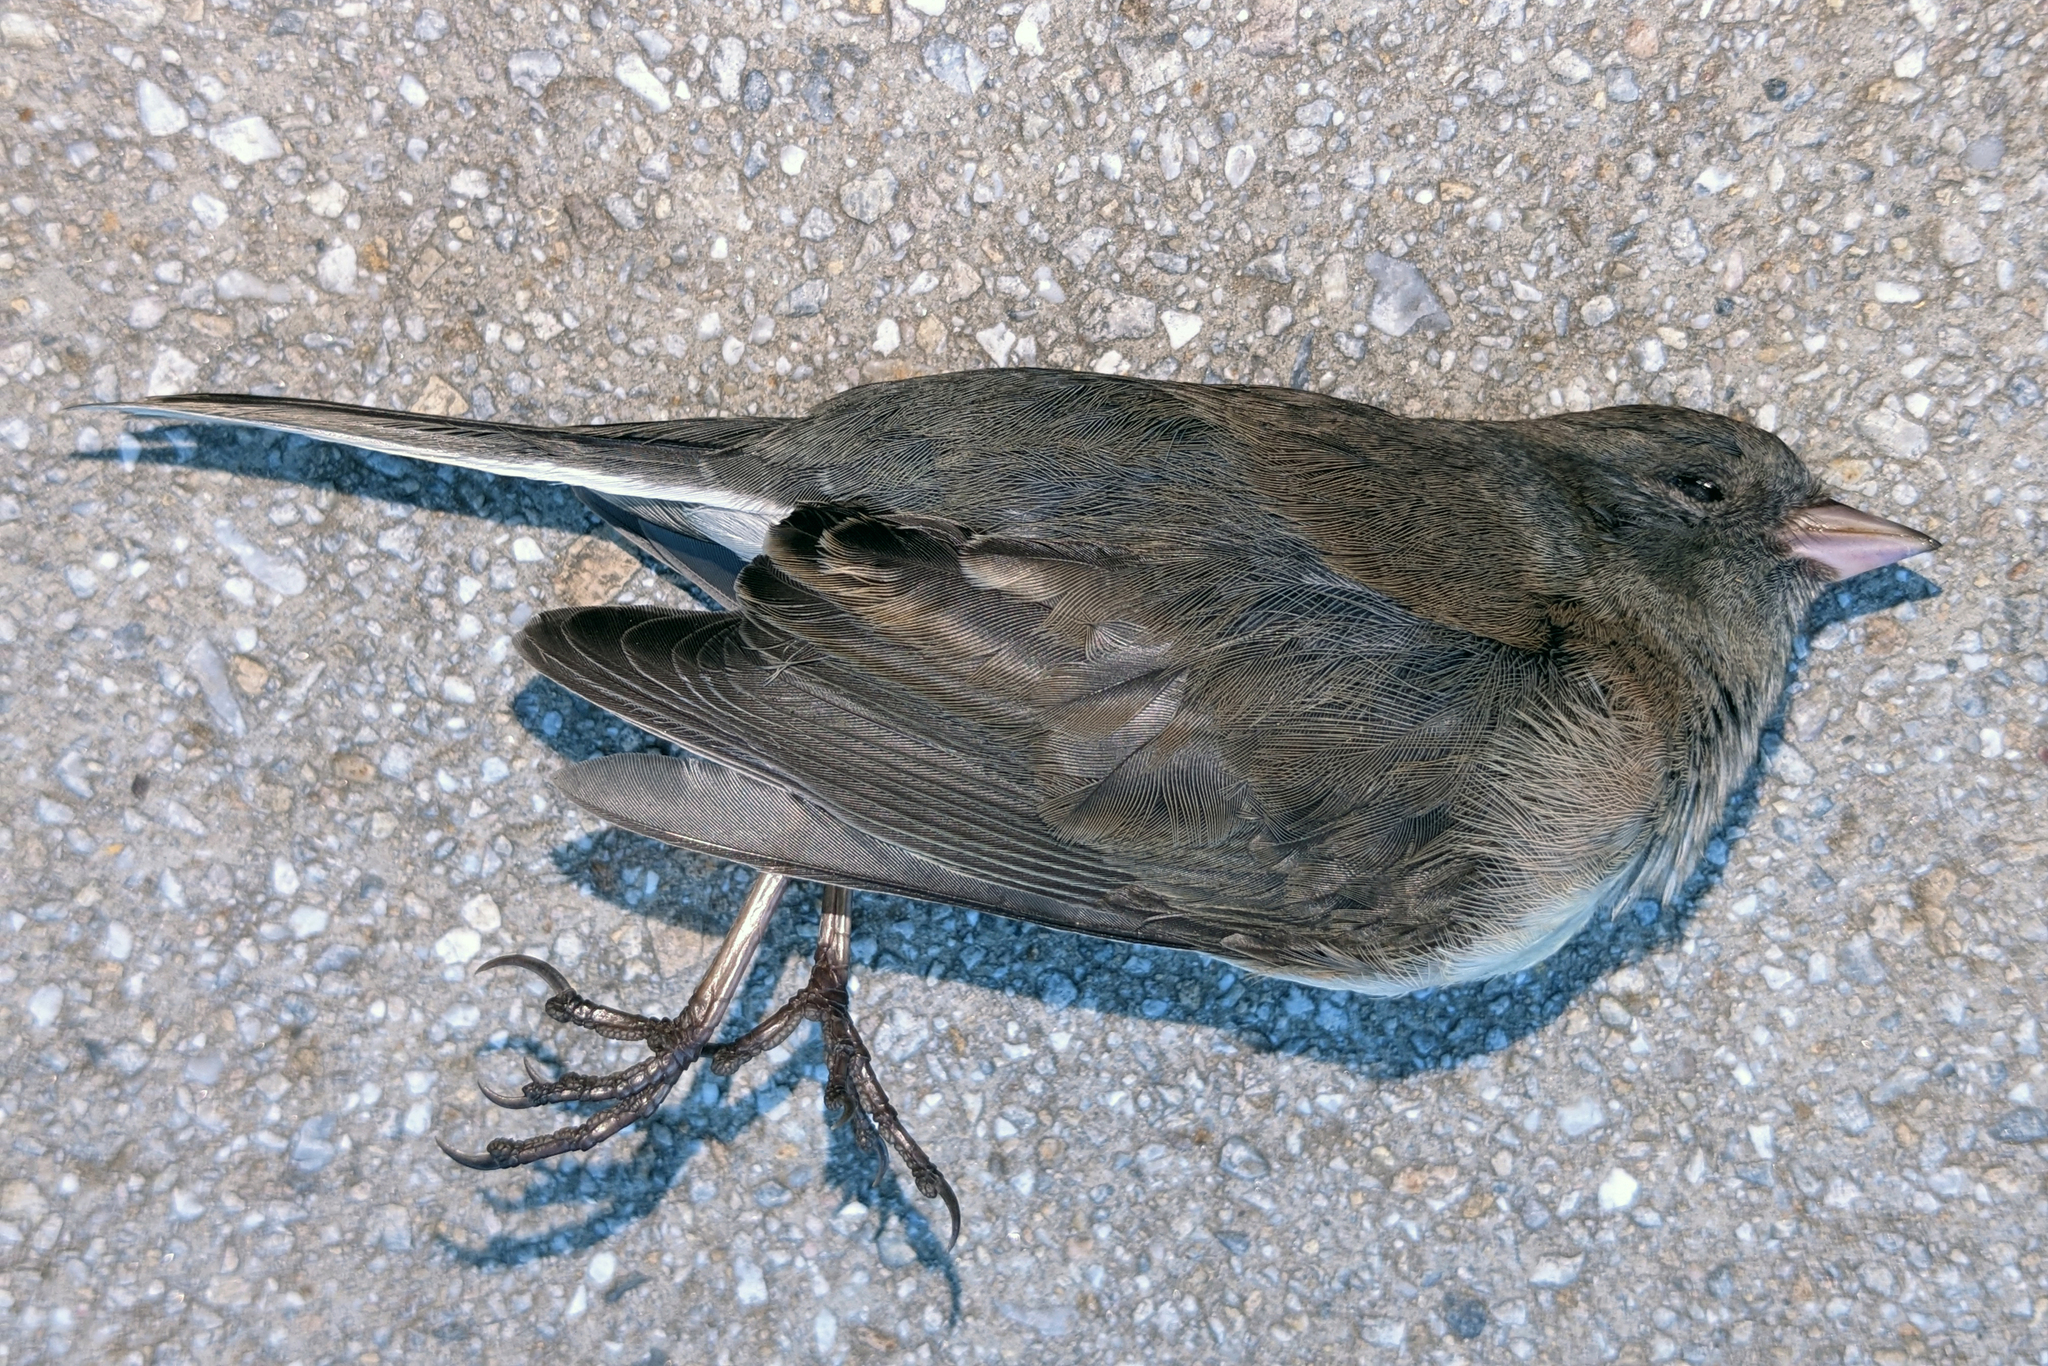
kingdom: Animalia
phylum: Chordata
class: Aves
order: Passeriformes
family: Passerellidae
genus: Junco
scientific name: Junco hyemalis
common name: Dark-eyed junco
